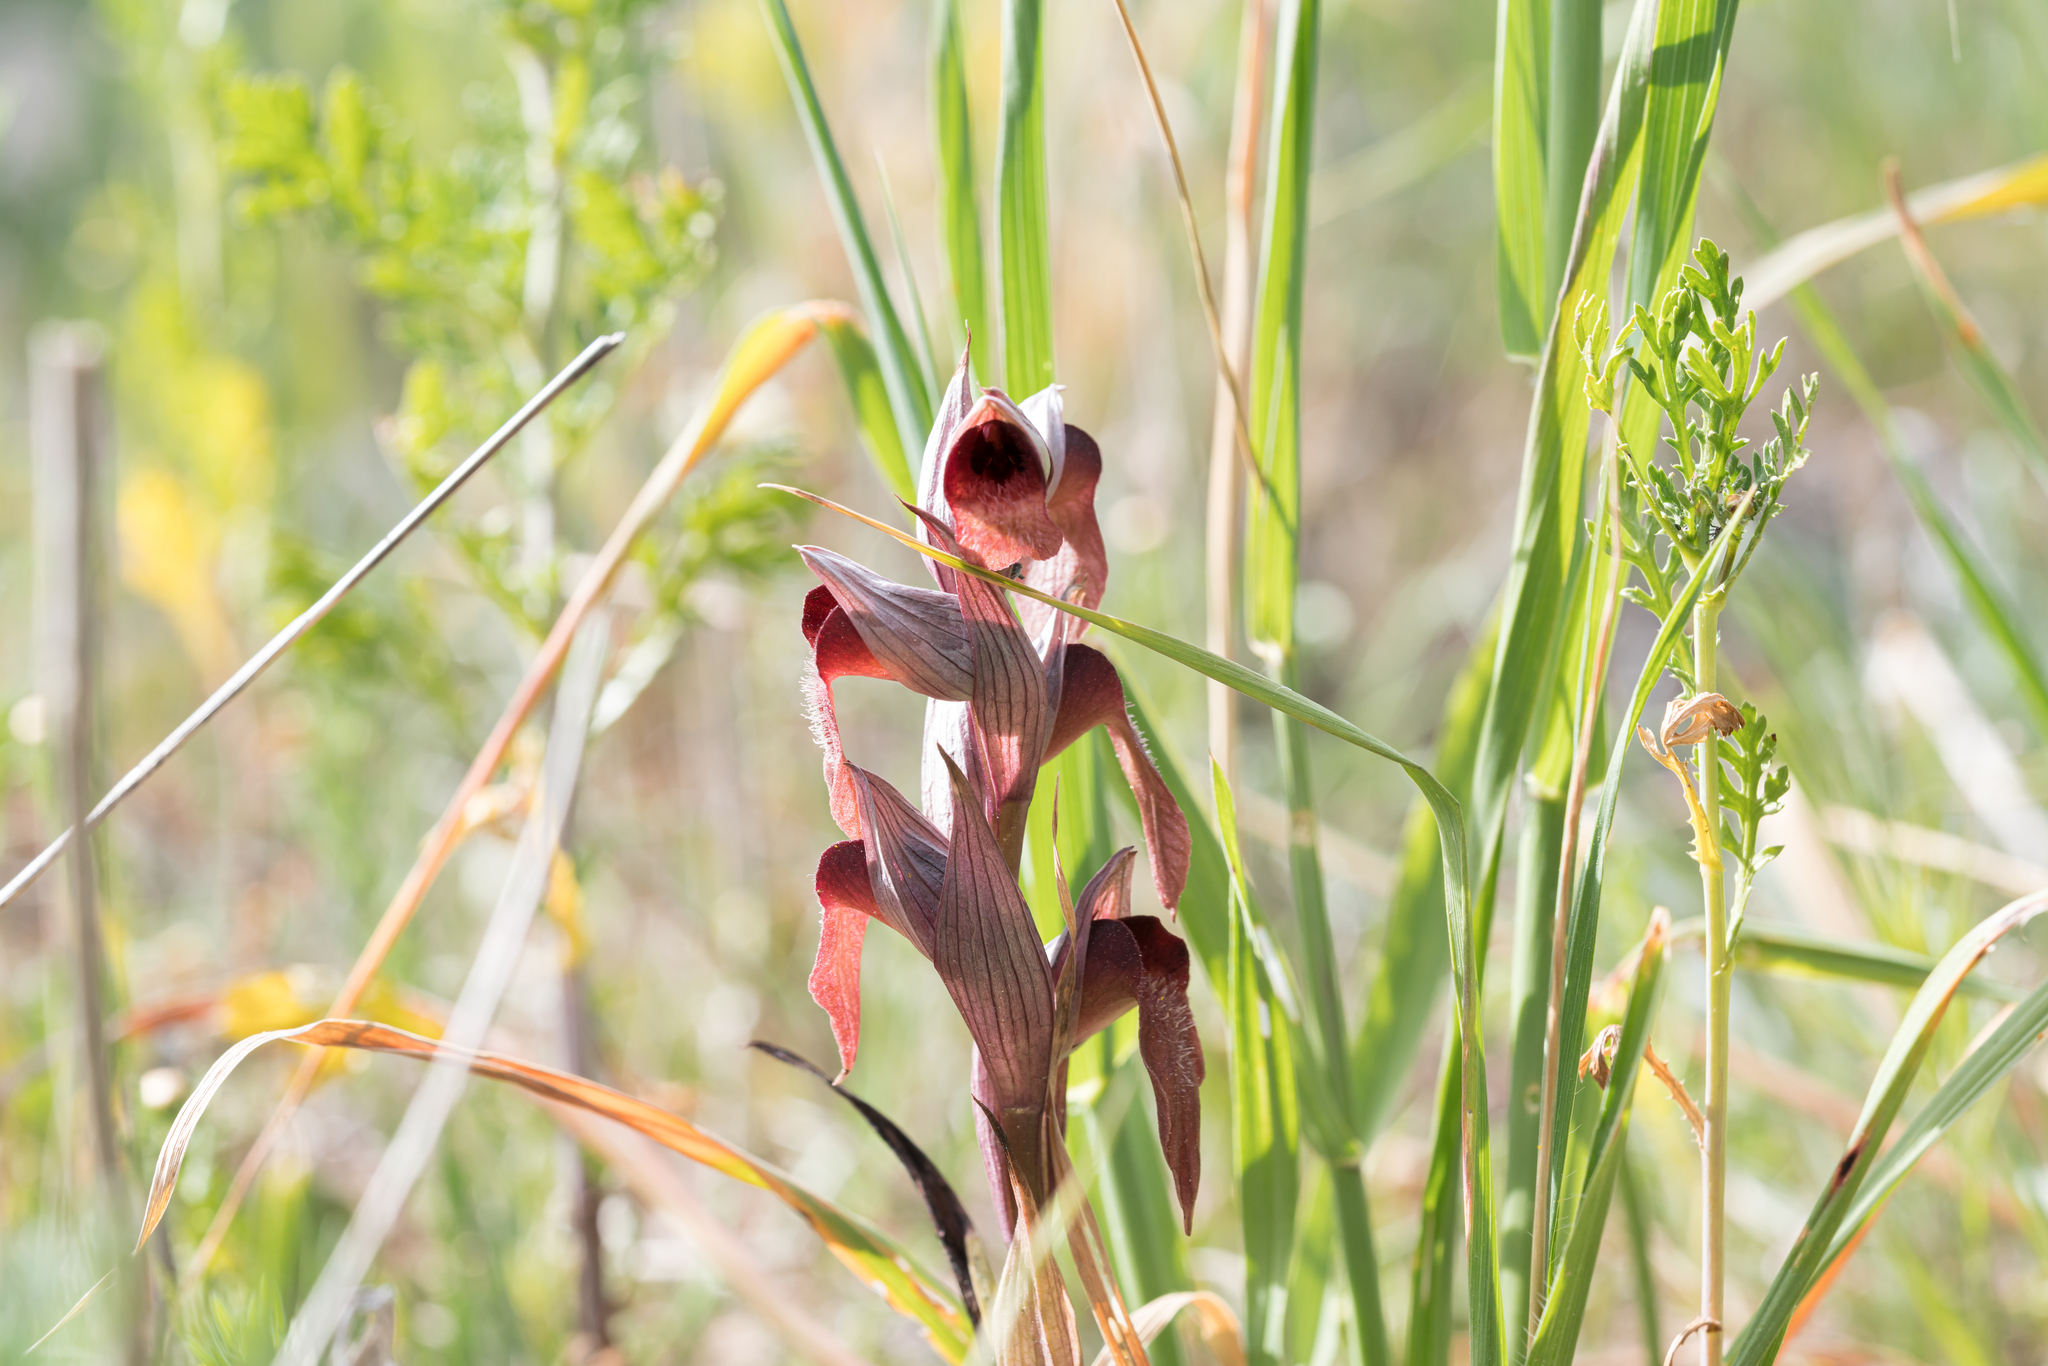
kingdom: Plantae
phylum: Tracheophyta
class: Liliopsida
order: Asparagales
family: Orchidaceae
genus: Serapias
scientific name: Serapias orientalis
